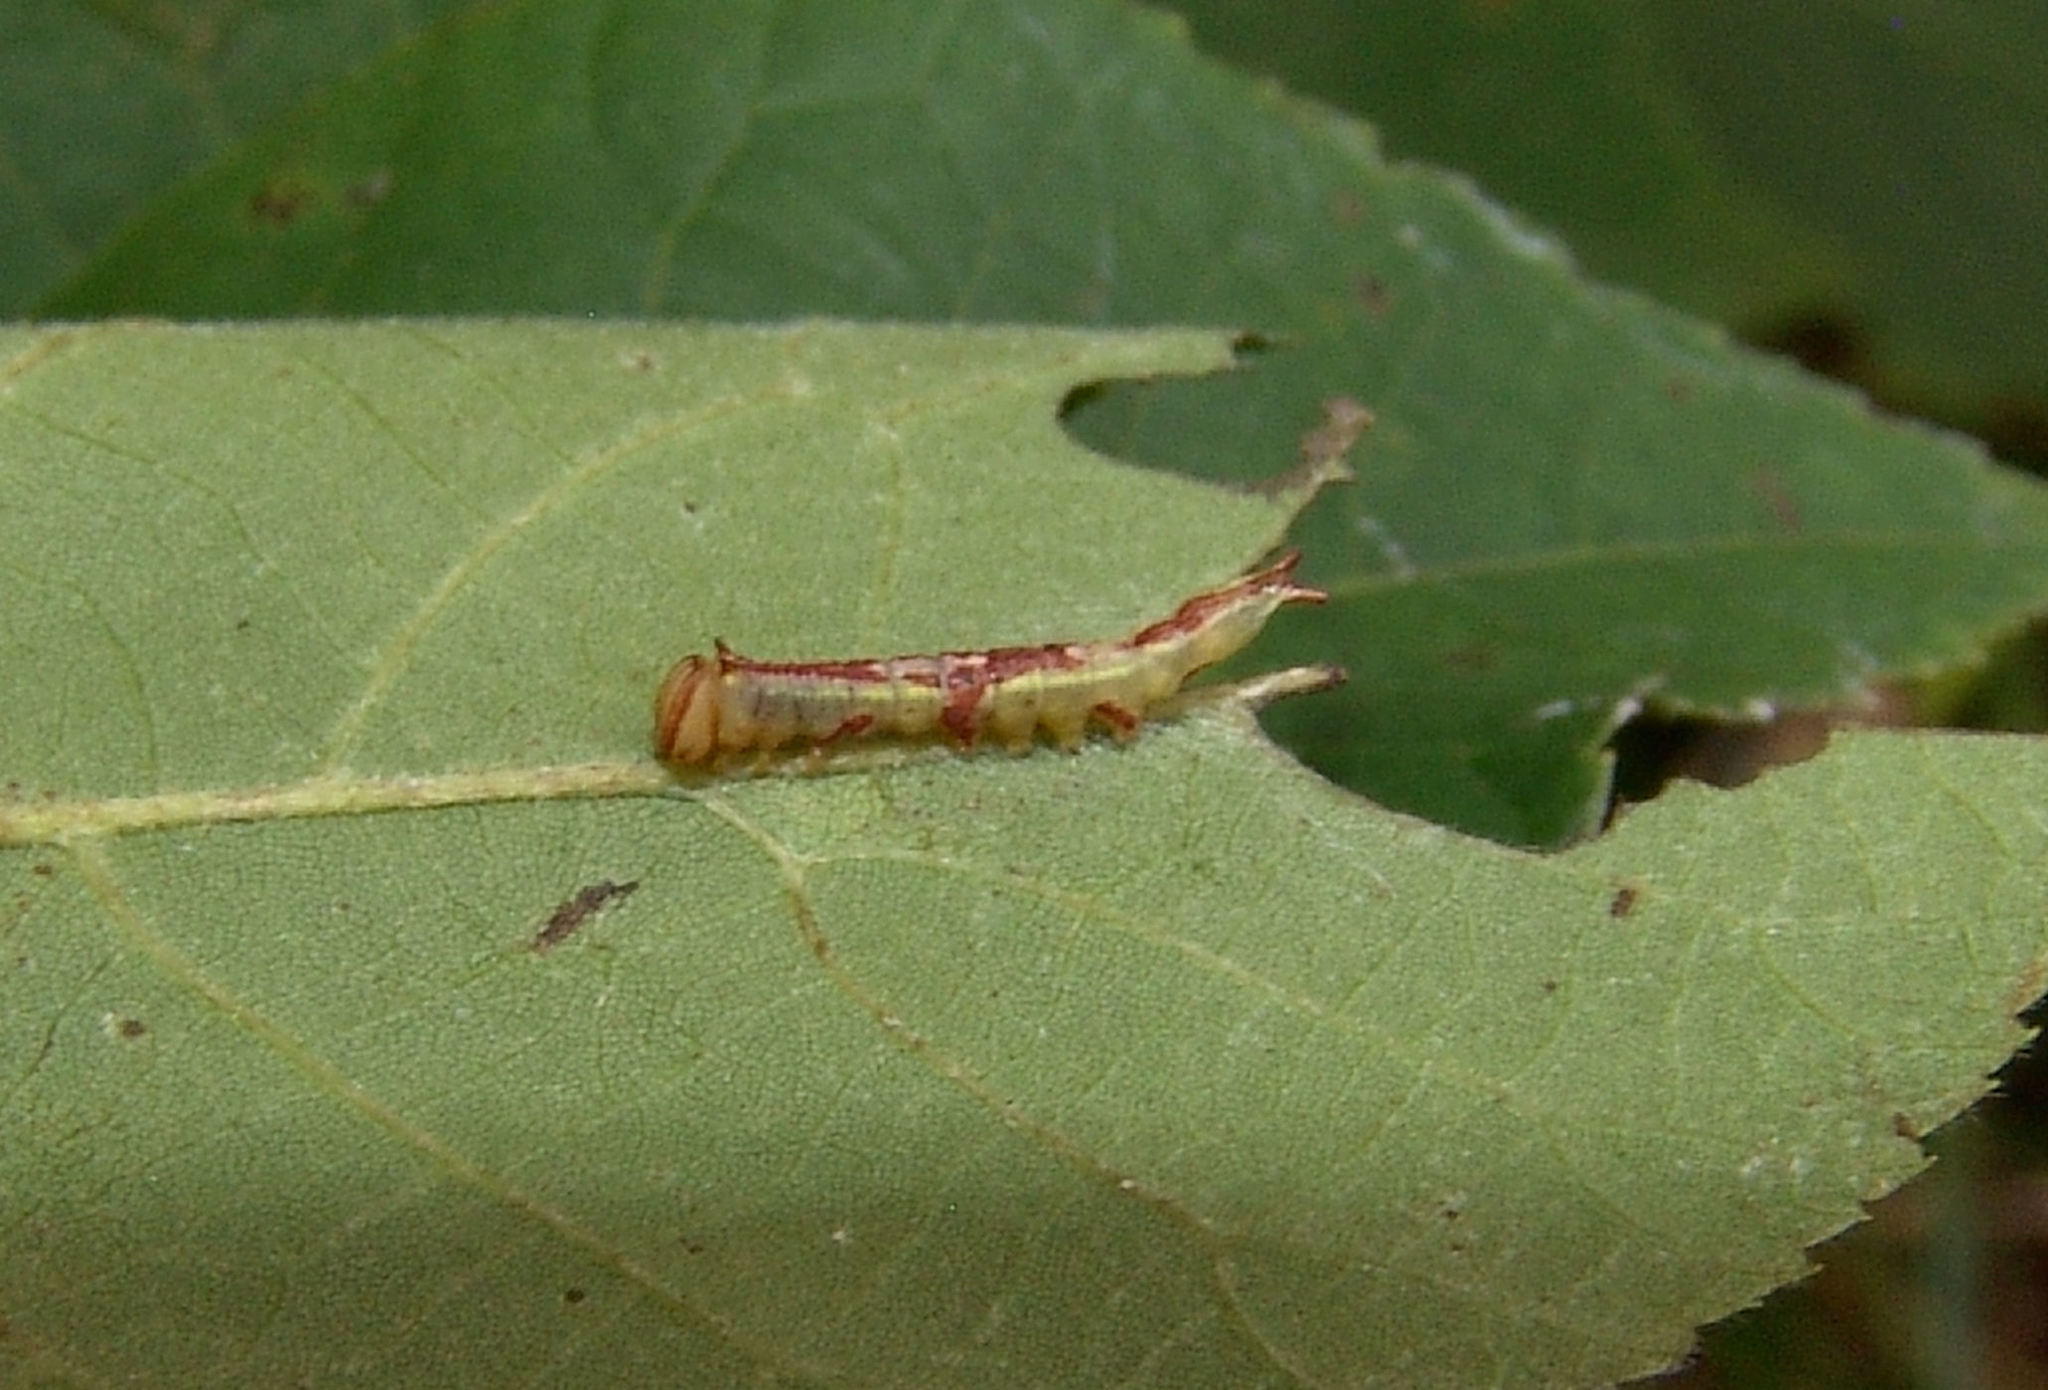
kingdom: Animalia
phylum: Arthropoda
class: Insecta
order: Lepidoptera
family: Notodontidae
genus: Disphragis
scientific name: Disphragis Cecrita guttivitta
